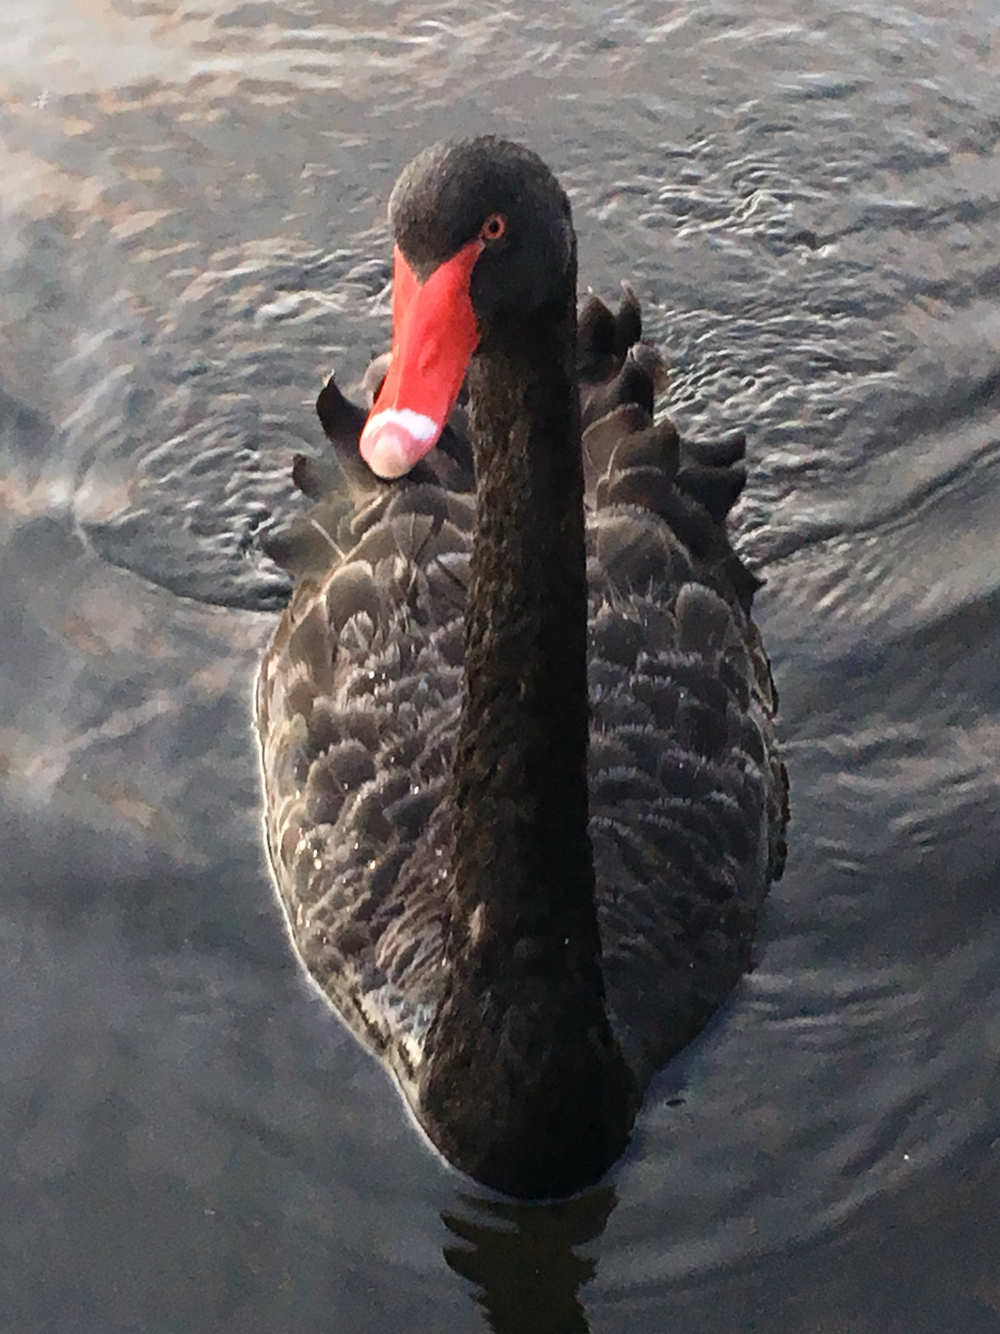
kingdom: Animalia
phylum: Chordata
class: Aves
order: Anseriformes
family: Anatidae
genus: Cygnus
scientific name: Cygnus atratus
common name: Black swan
